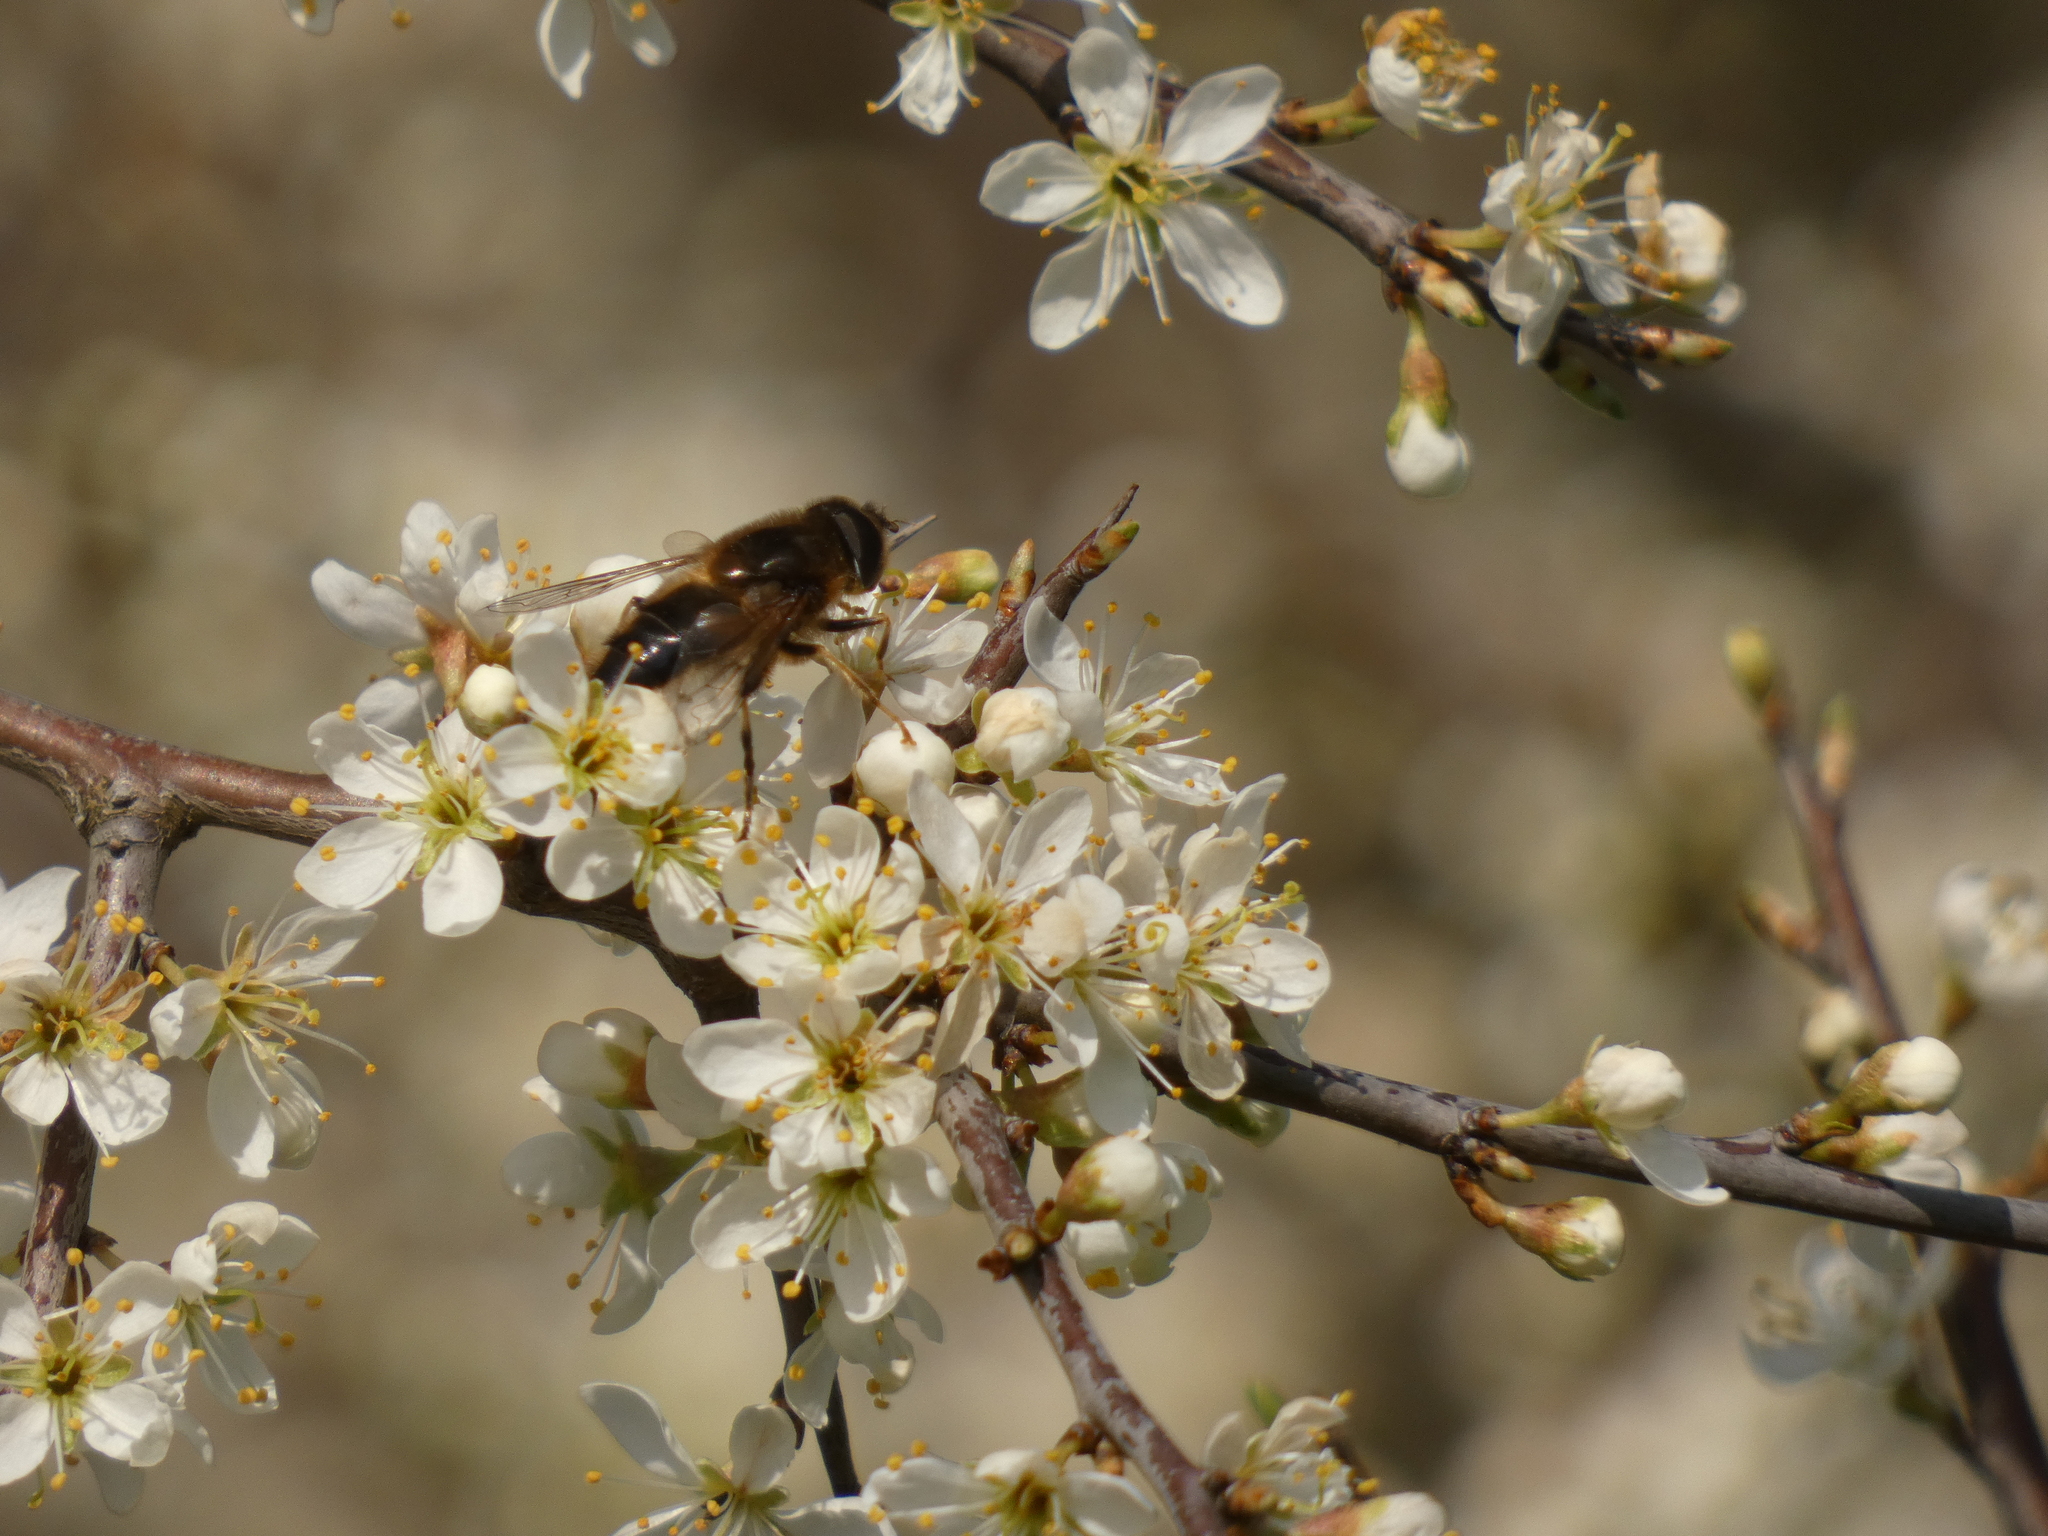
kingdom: Animalia
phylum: Arthropoda
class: Insecta
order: Diptera
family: Syrphidae
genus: Eristalis
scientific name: Eristalis pertinax
